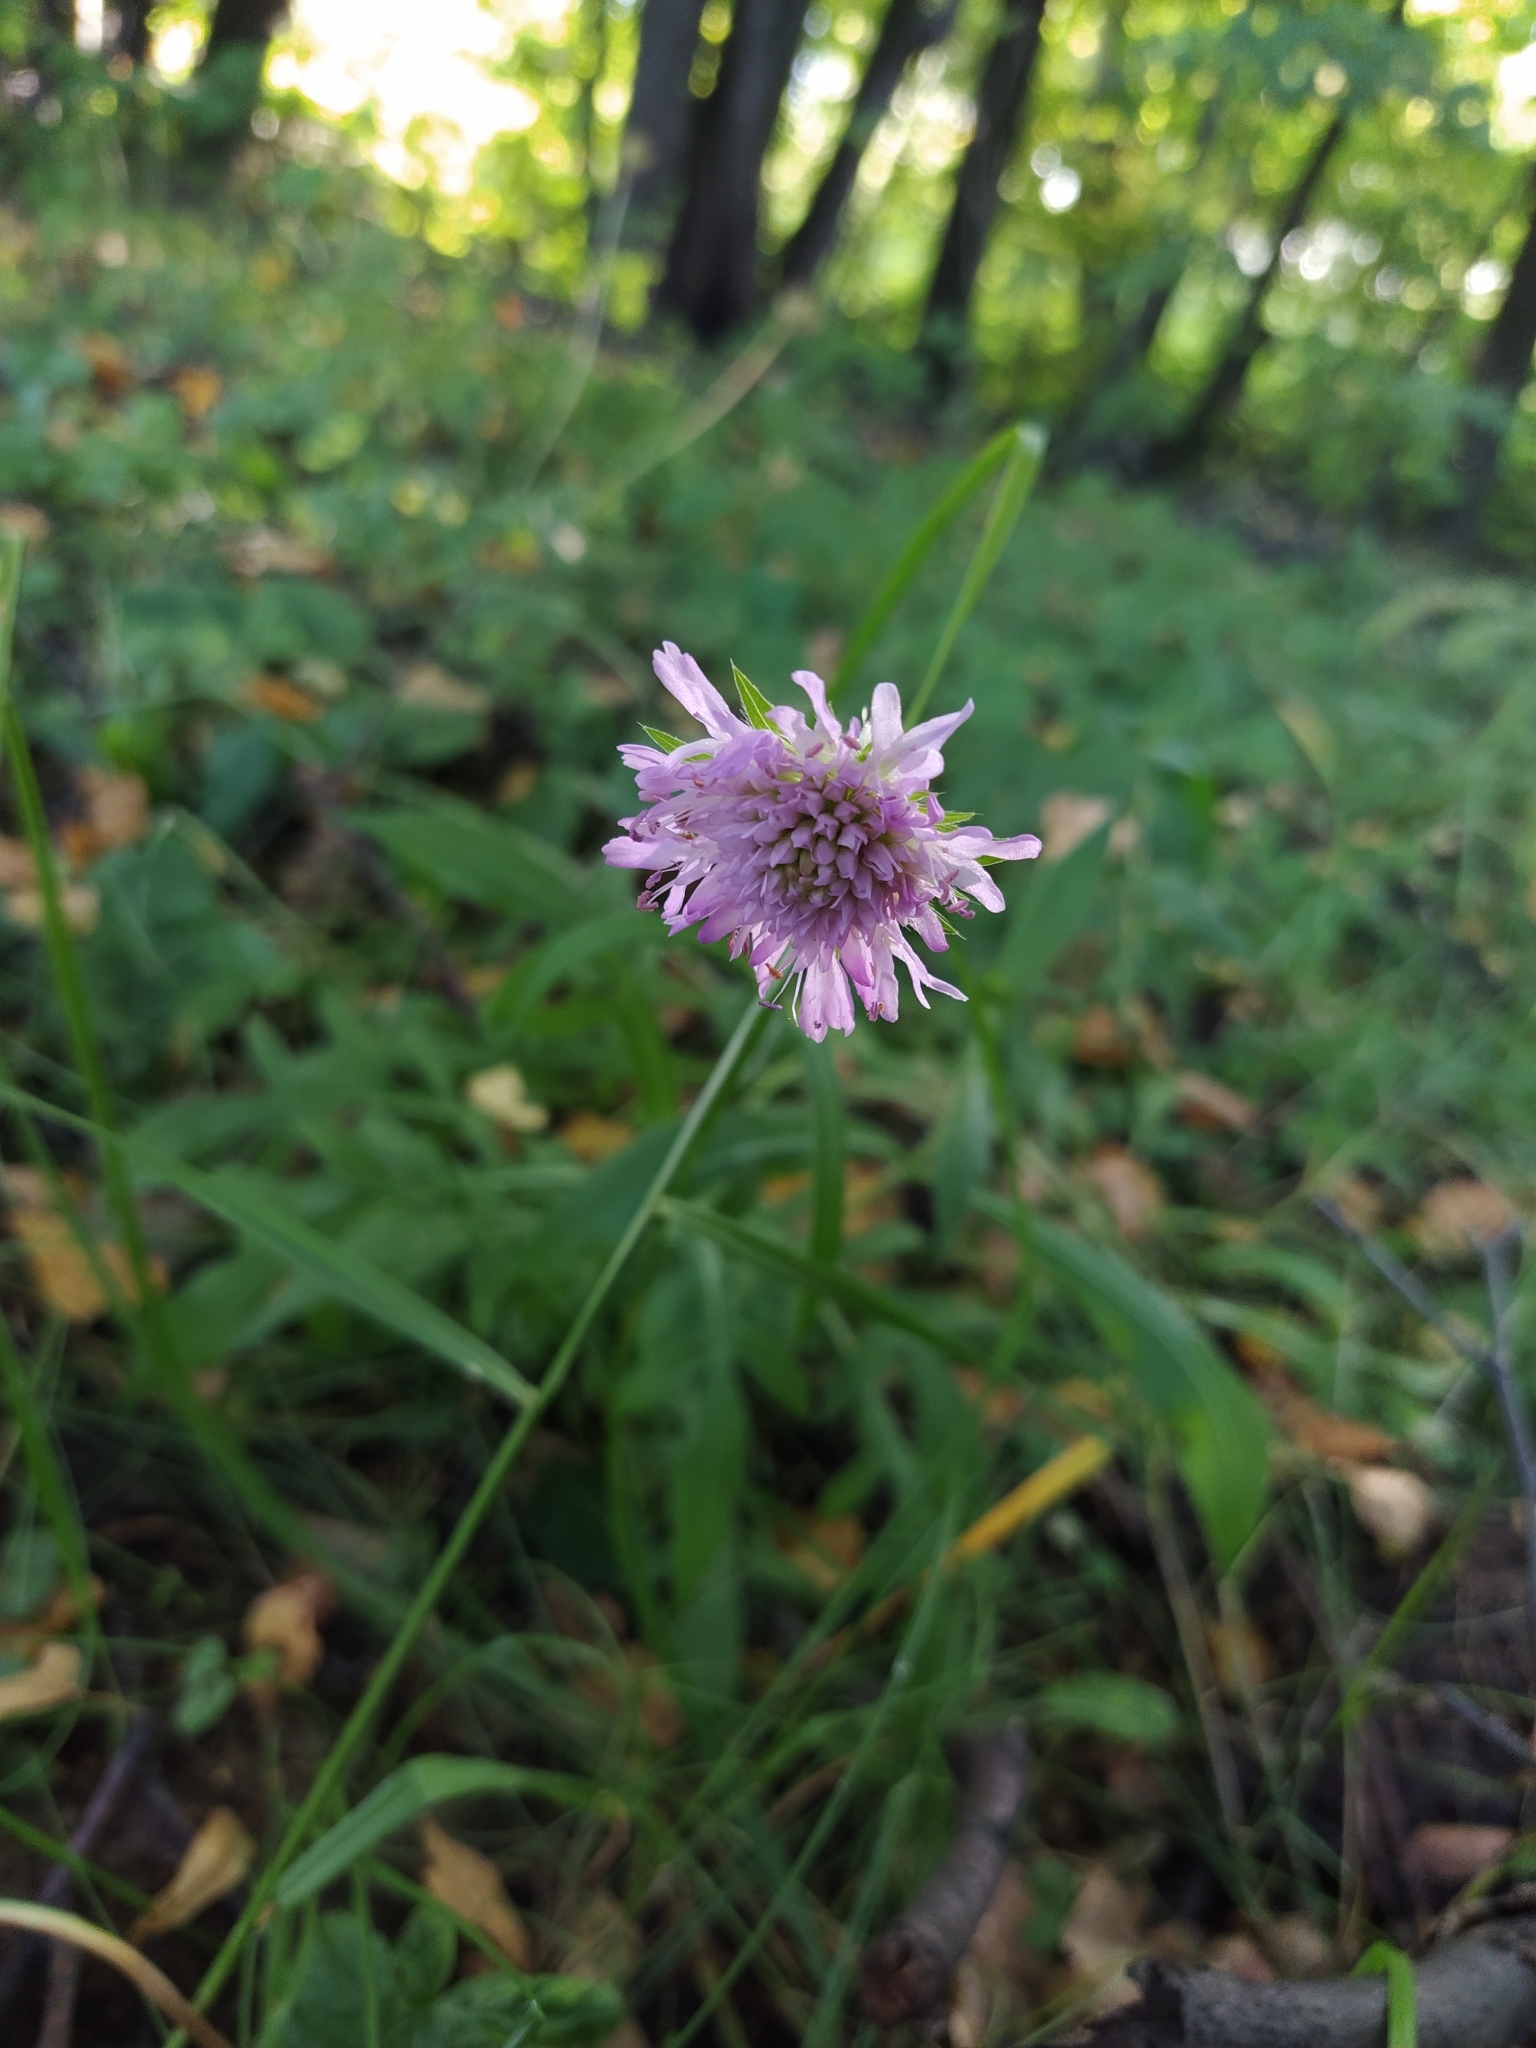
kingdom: Plantae
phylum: Tracheophyta
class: Magnoliopsida
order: Dipsacales
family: Caprifoliaceae
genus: Knautia
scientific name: Knautia arvensis
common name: Field scabiosa
